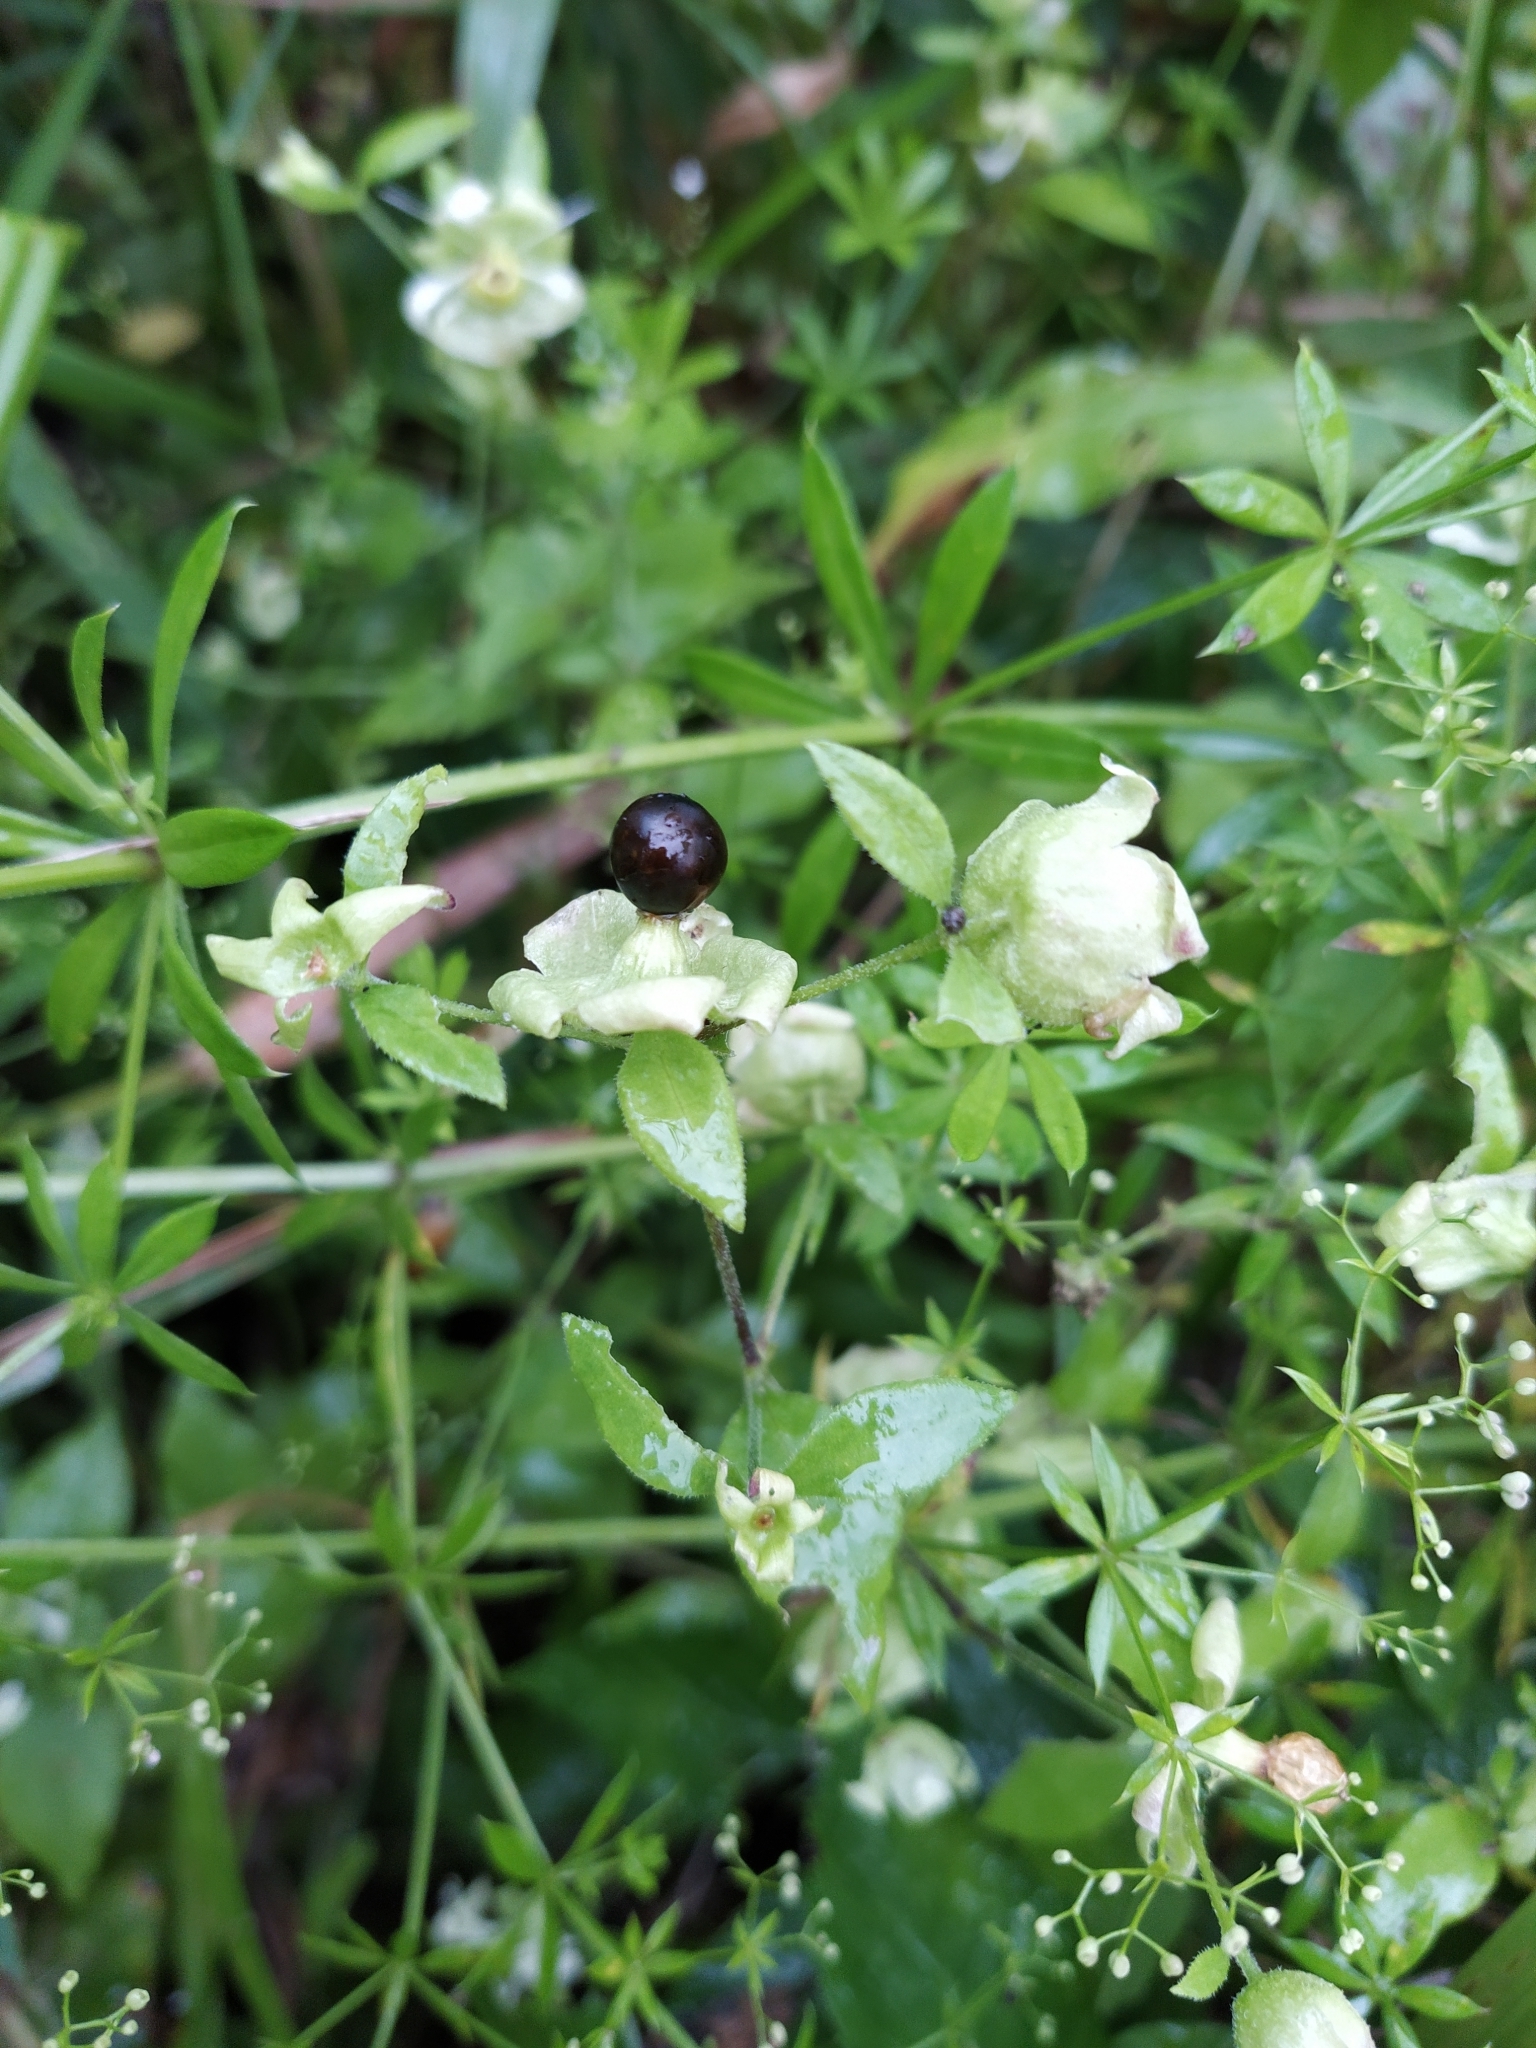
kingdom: Plantae
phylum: Tracheophyta
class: Magnoliopsida
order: Caryophyllales
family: Caryophyllaceae
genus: Silene
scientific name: Silene baccifera
